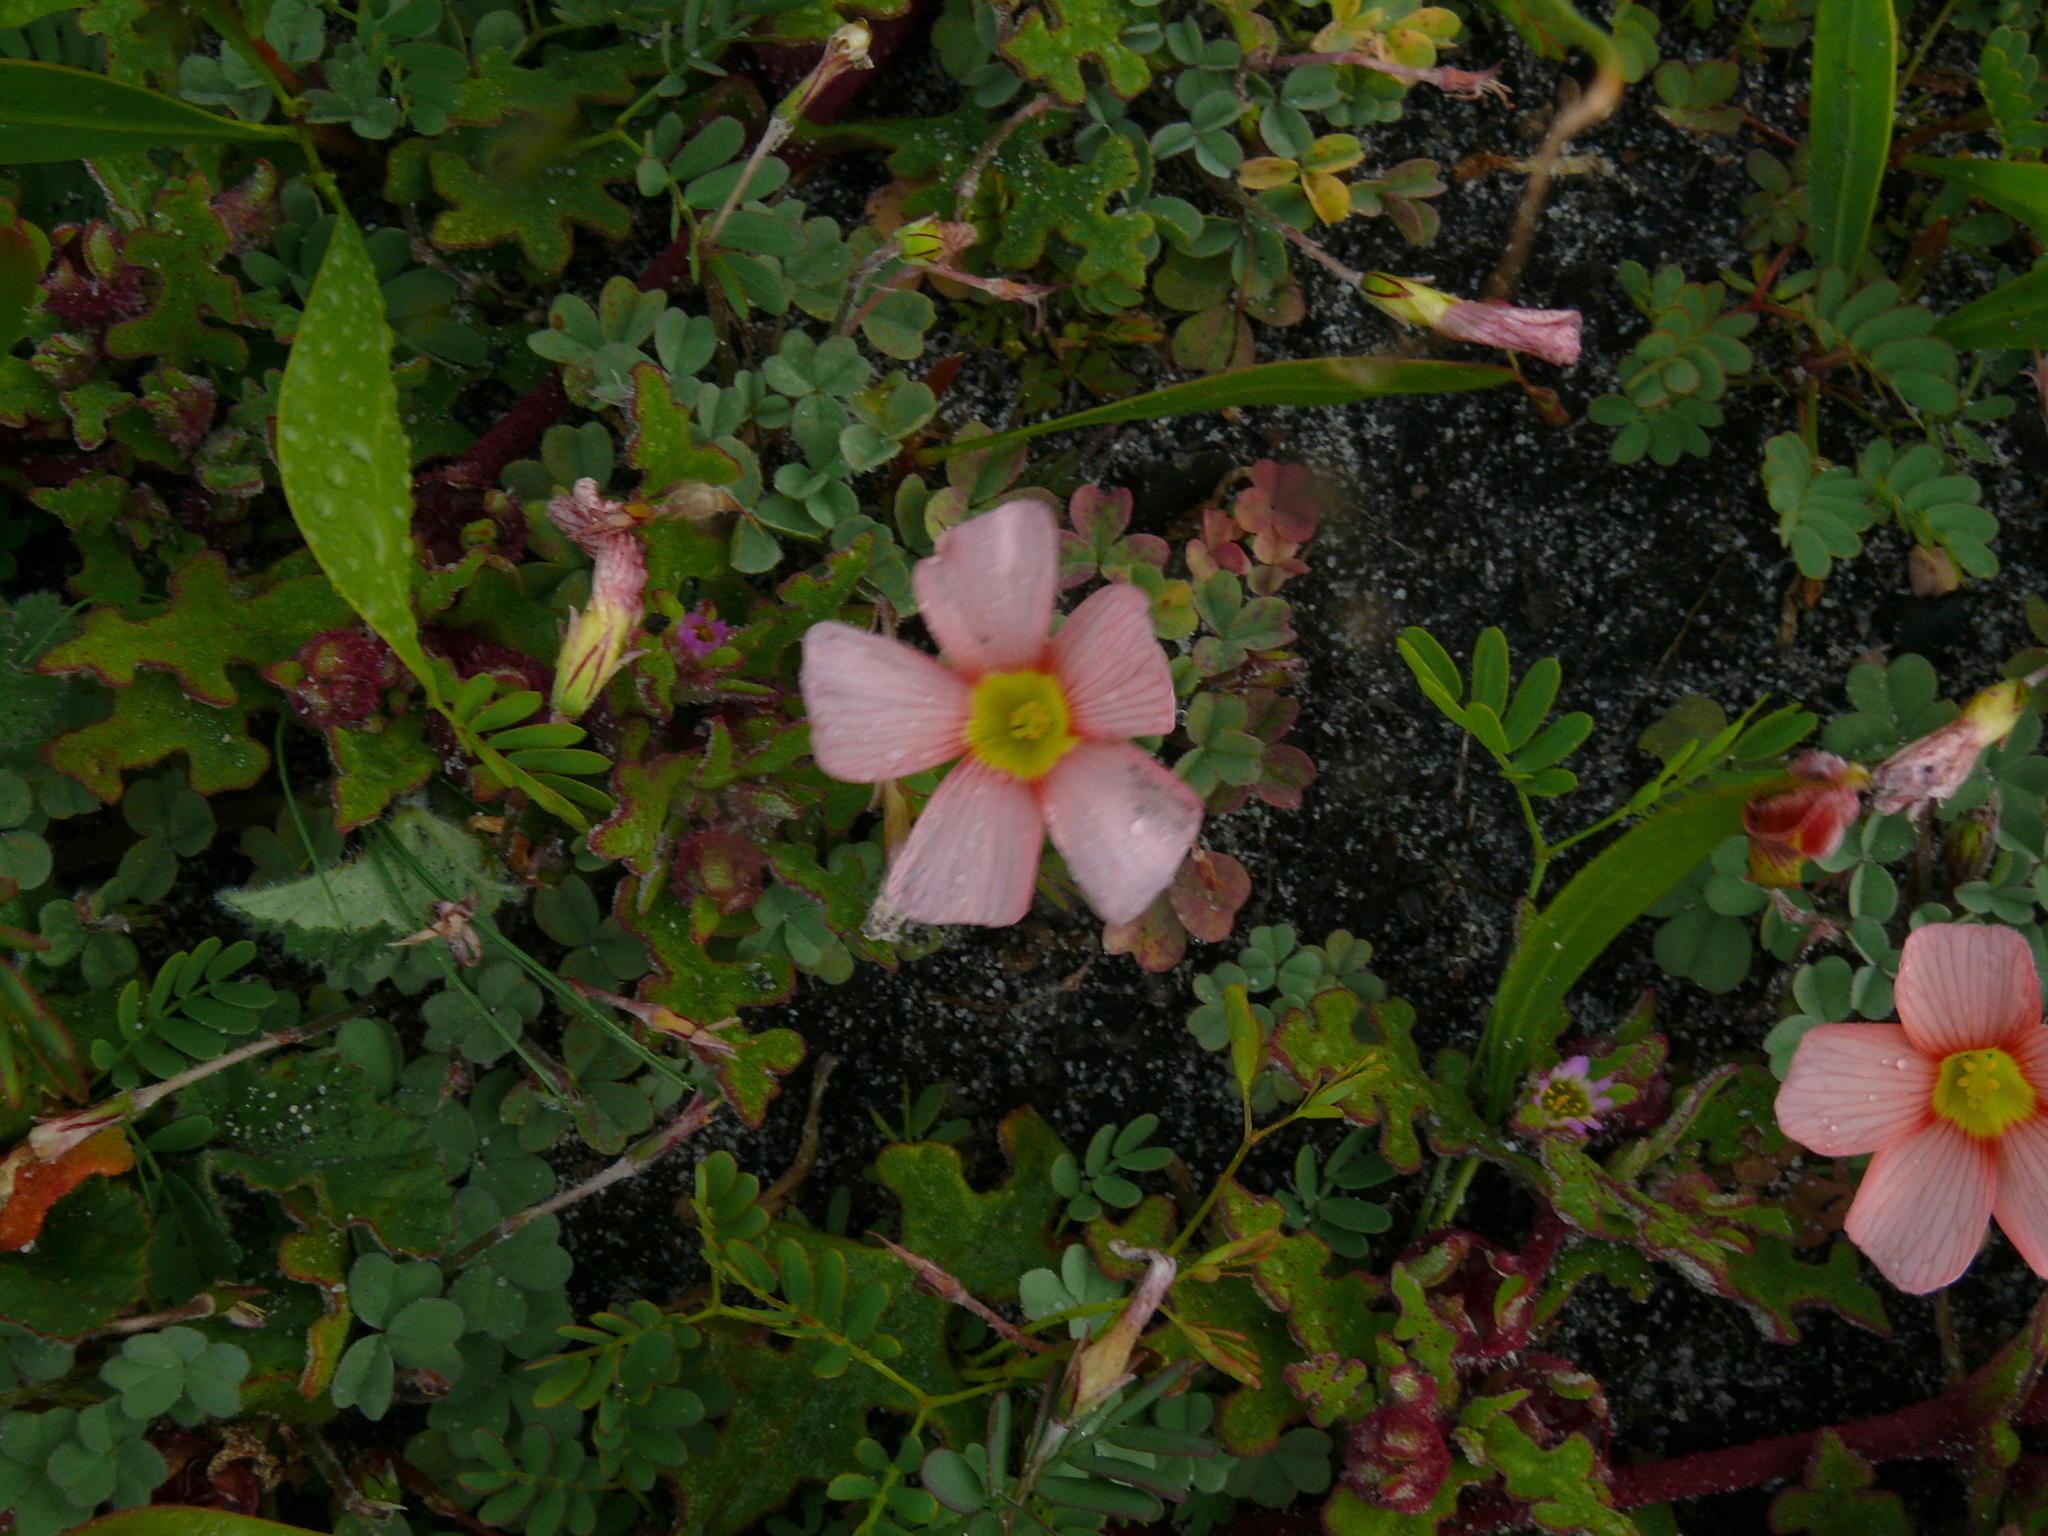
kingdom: Plantae
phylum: Tracheophyta
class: Magnoliopsida
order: Oxalidales
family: Oxalidaceae
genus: Oxalis
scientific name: Oxalis obtusa
